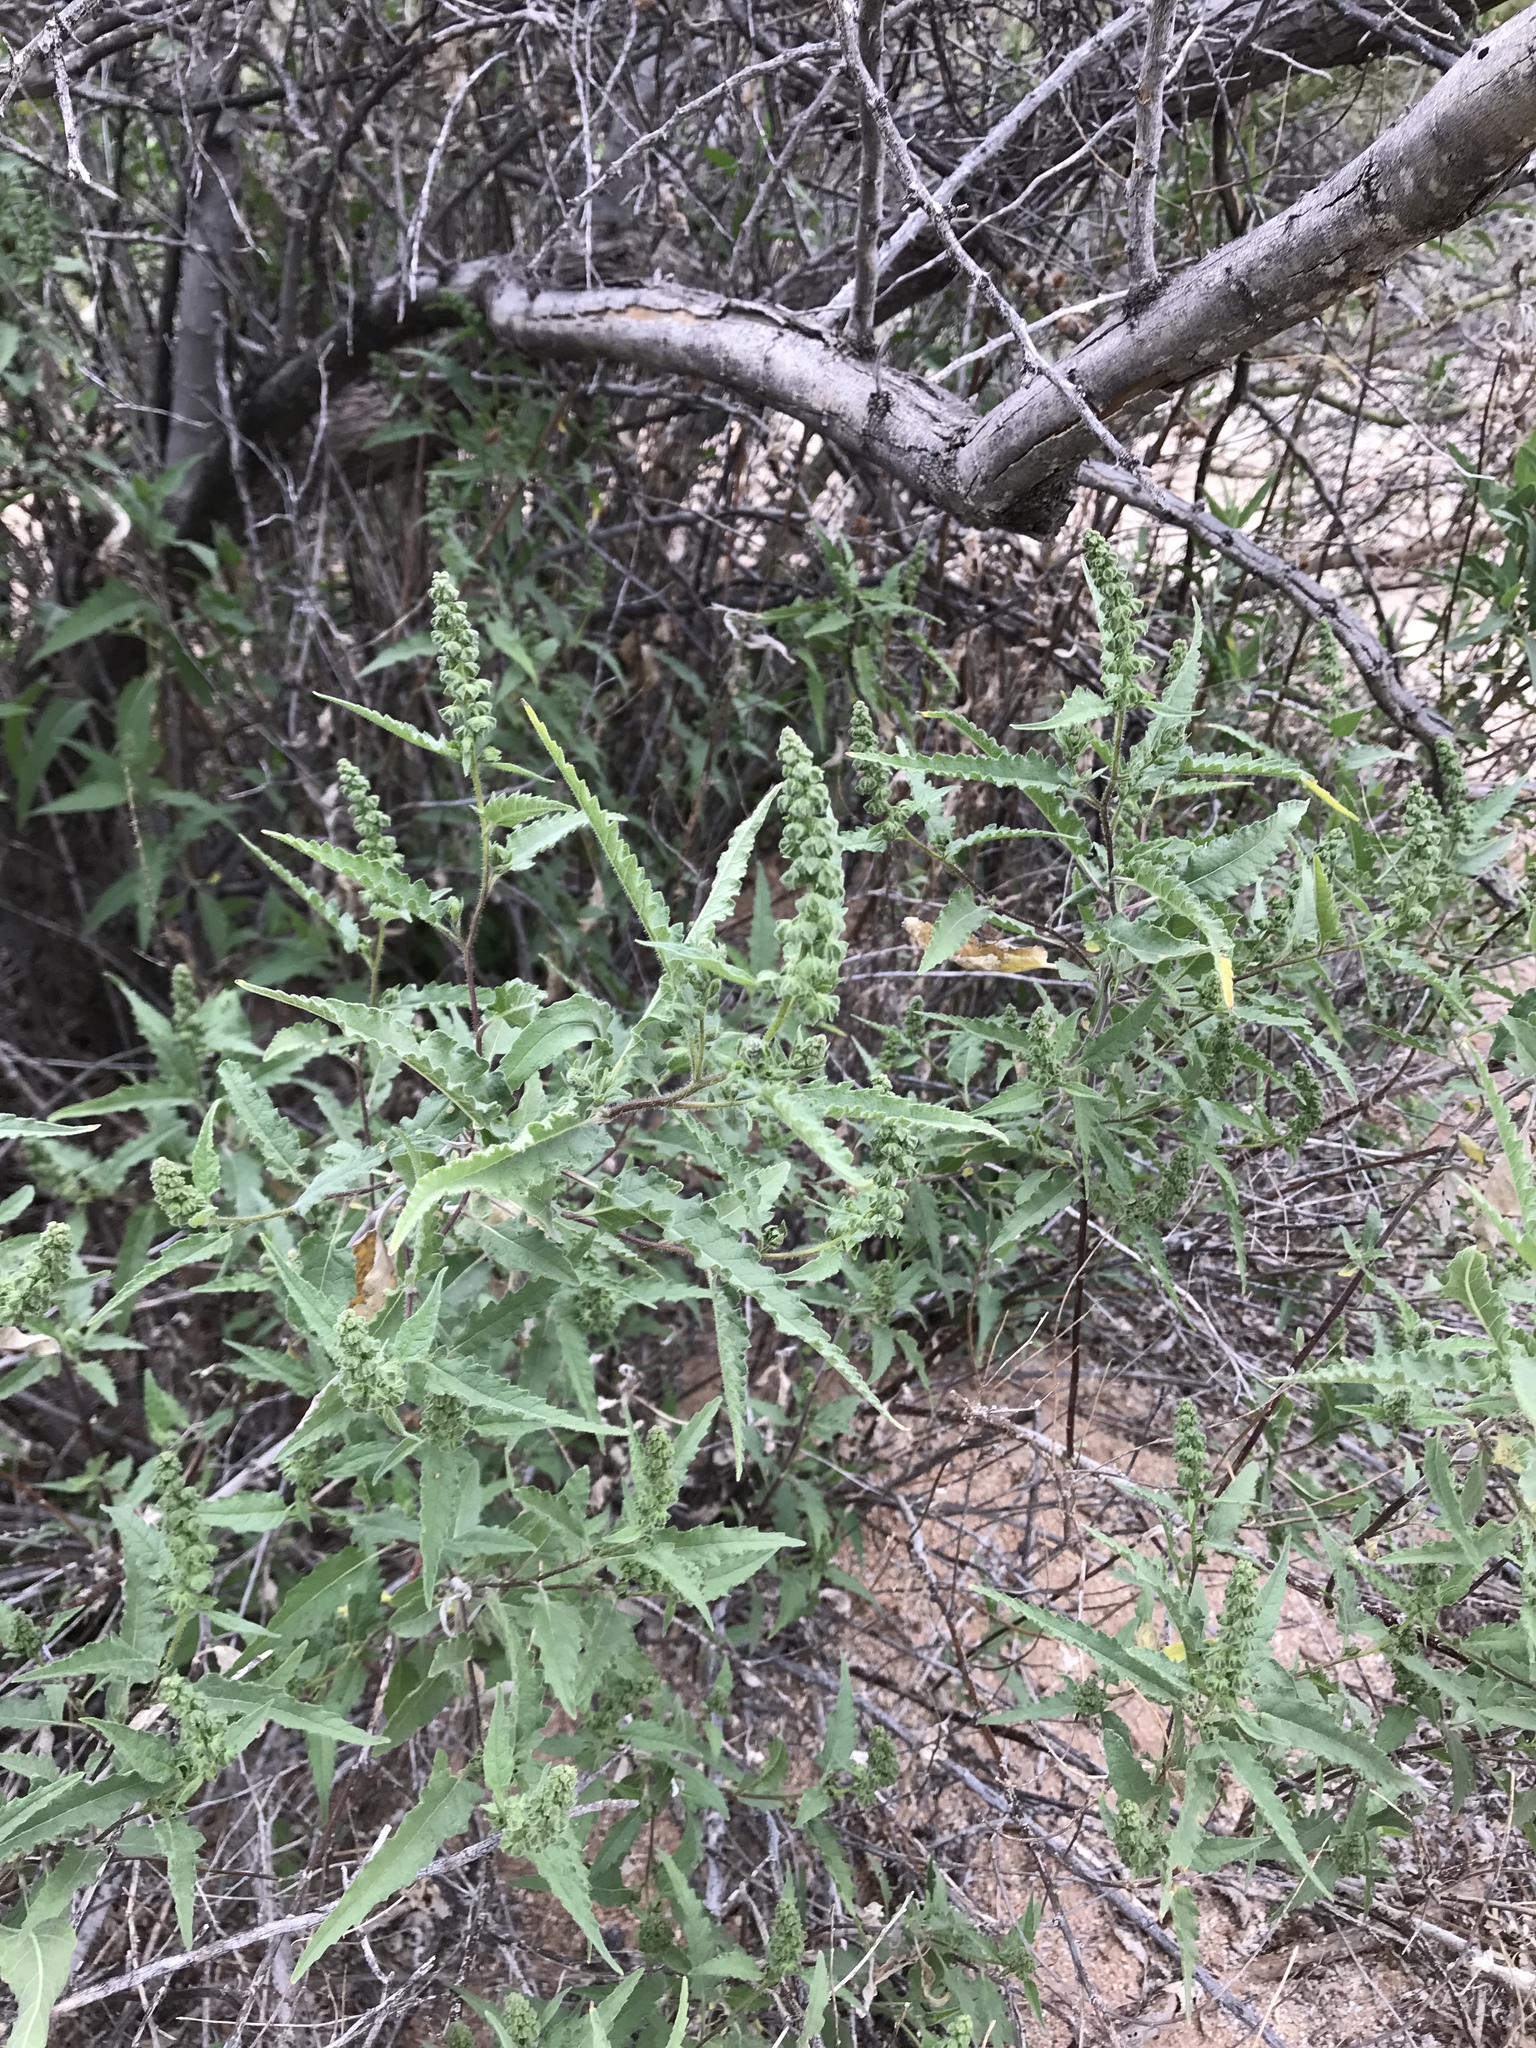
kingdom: Plantae
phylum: Tracheophyta
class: Magnoliopsida
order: Asterales
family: Asteraceae
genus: Ambrosia
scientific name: Ambrosia ambrosioides
